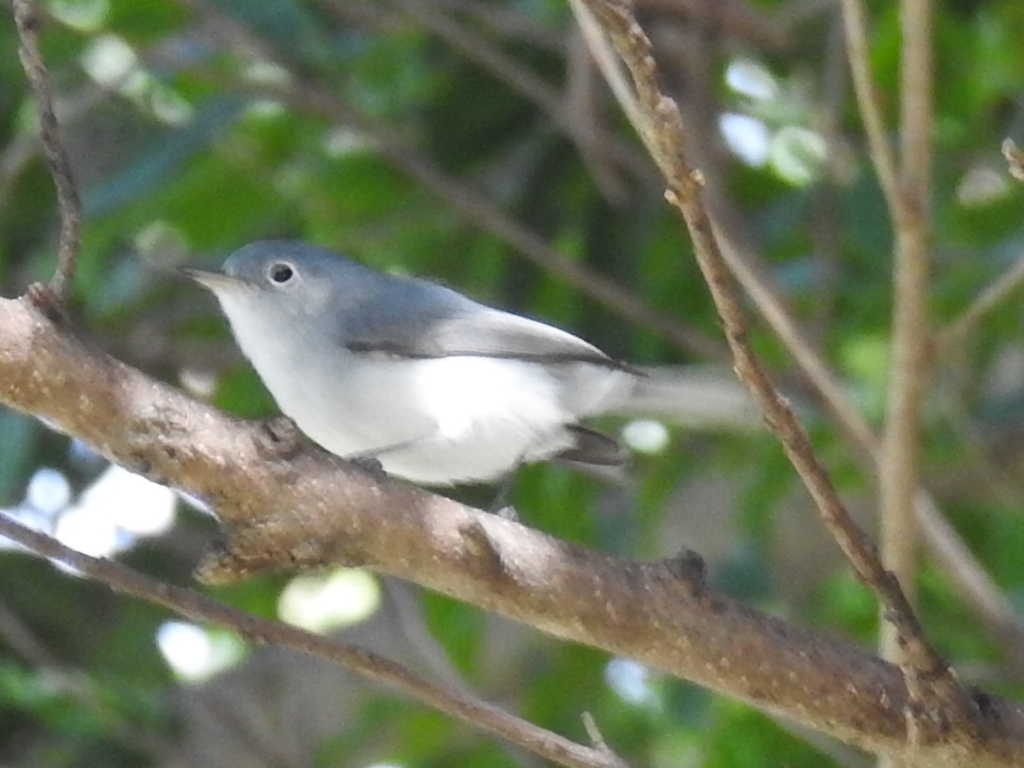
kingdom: Animalia
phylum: Chordata
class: Aves
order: Passeriformes
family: Polioptilidae
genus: Polioptila
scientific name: Polioptila caerulea
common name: Blue-gray gnatcatcher
